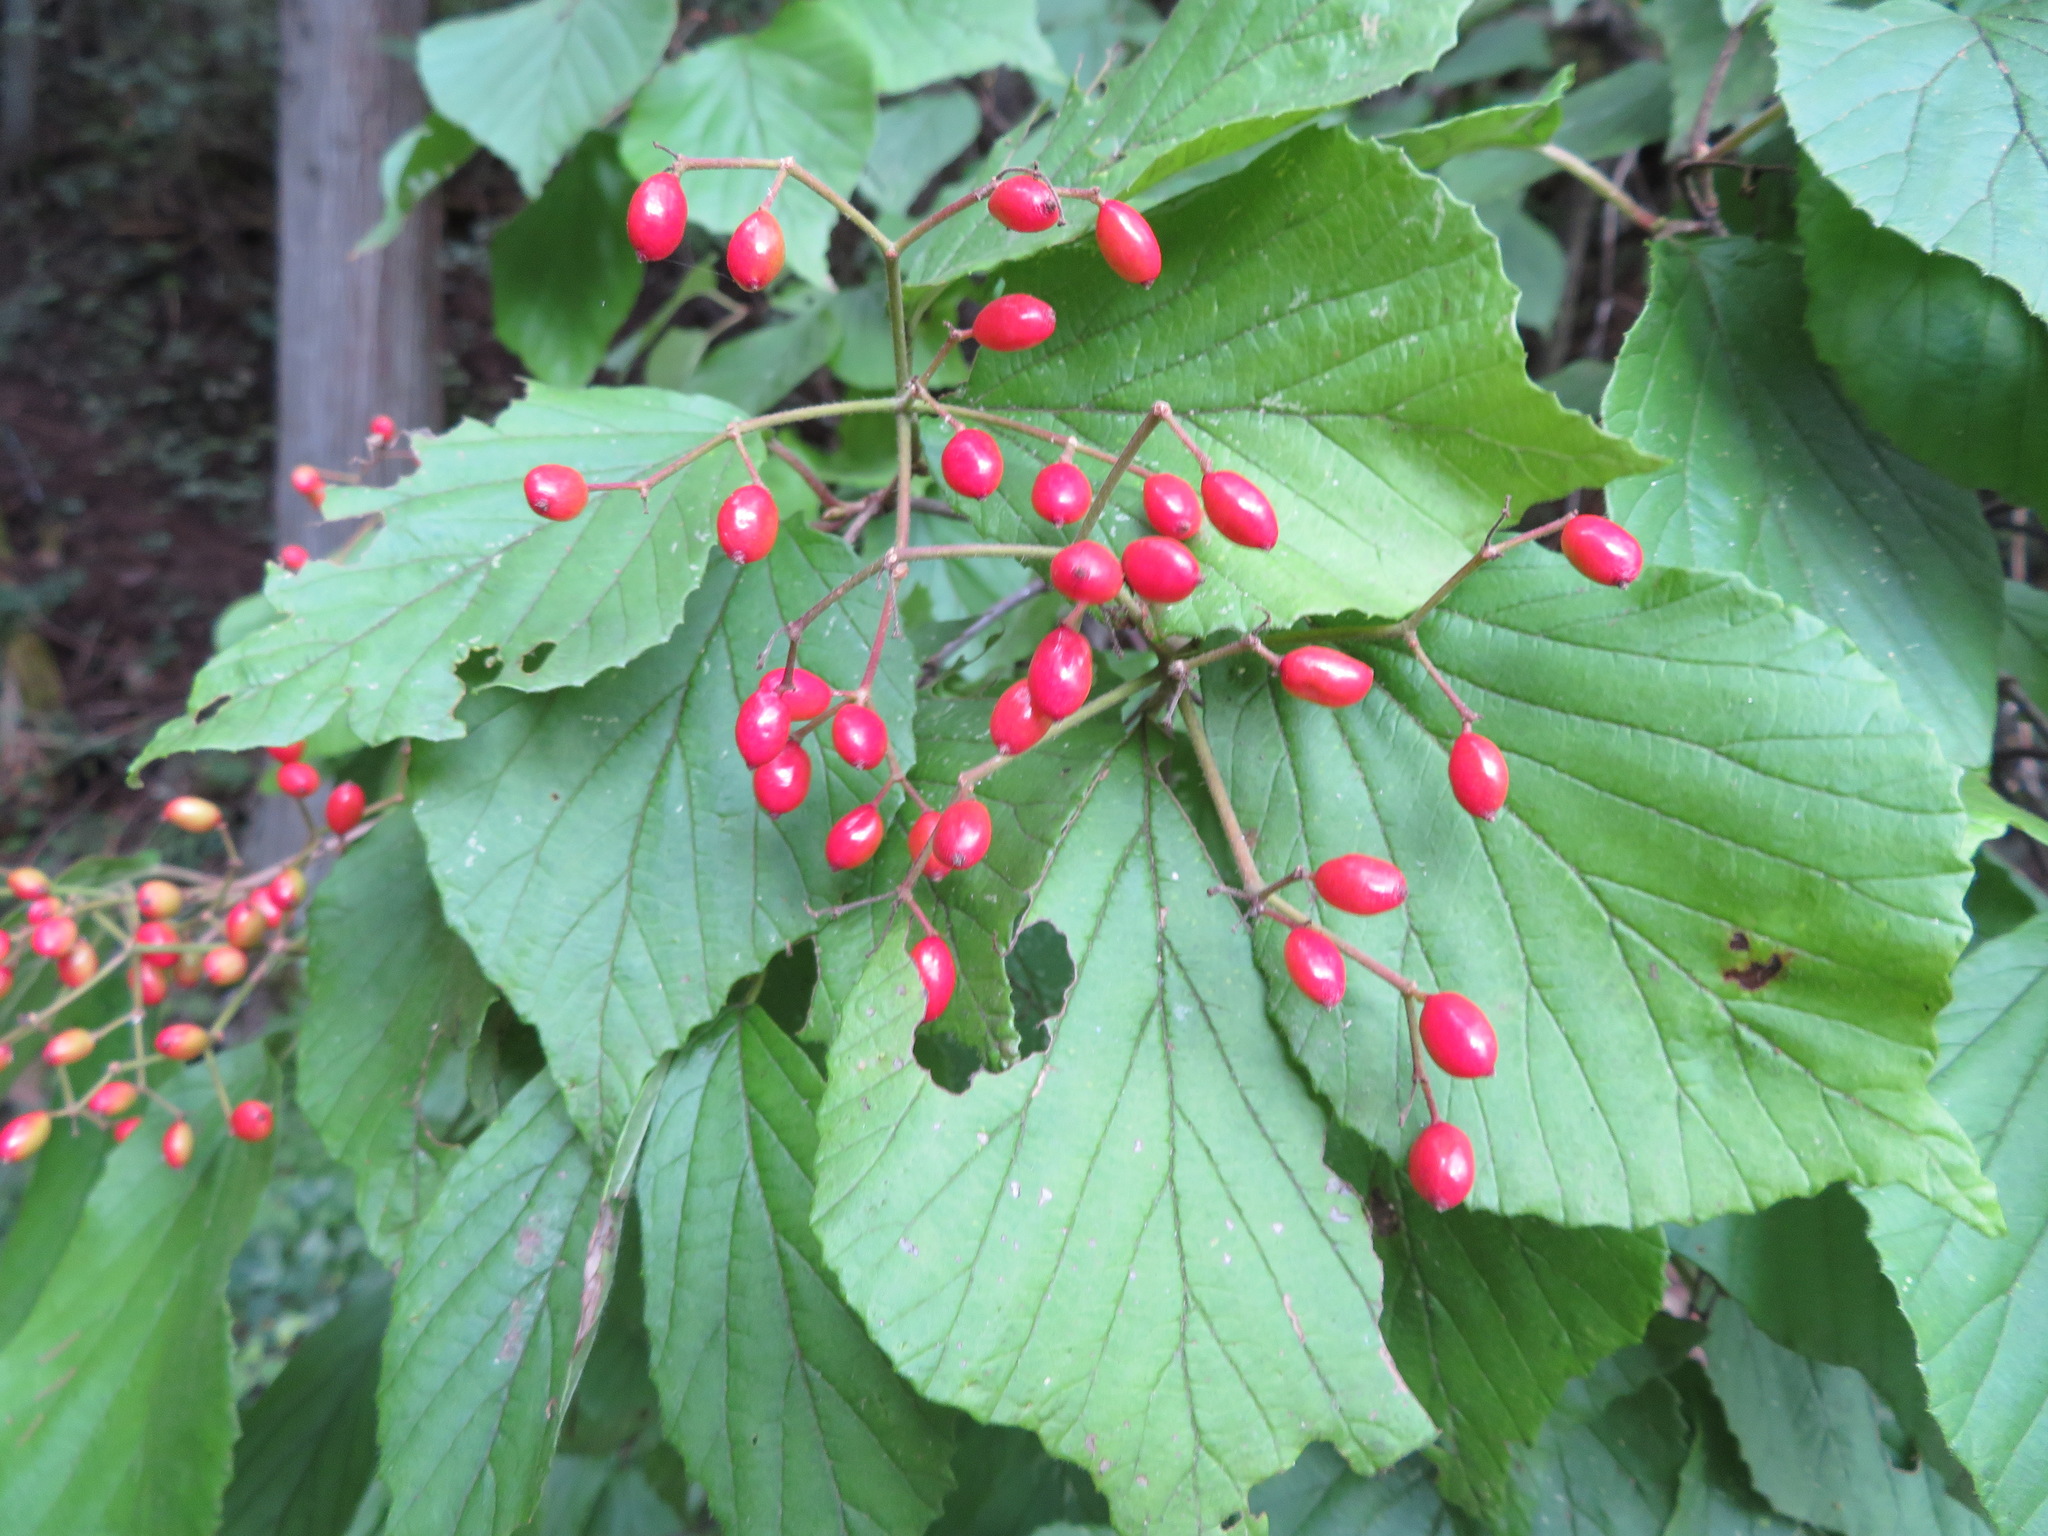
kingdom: Plantae
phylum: Tracheophyta
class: Magnoliopsida
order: Dipsacales
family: Viburnaceae
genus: Viburnum
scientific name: Viburnum dilatatum
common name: Linden arrowwood
